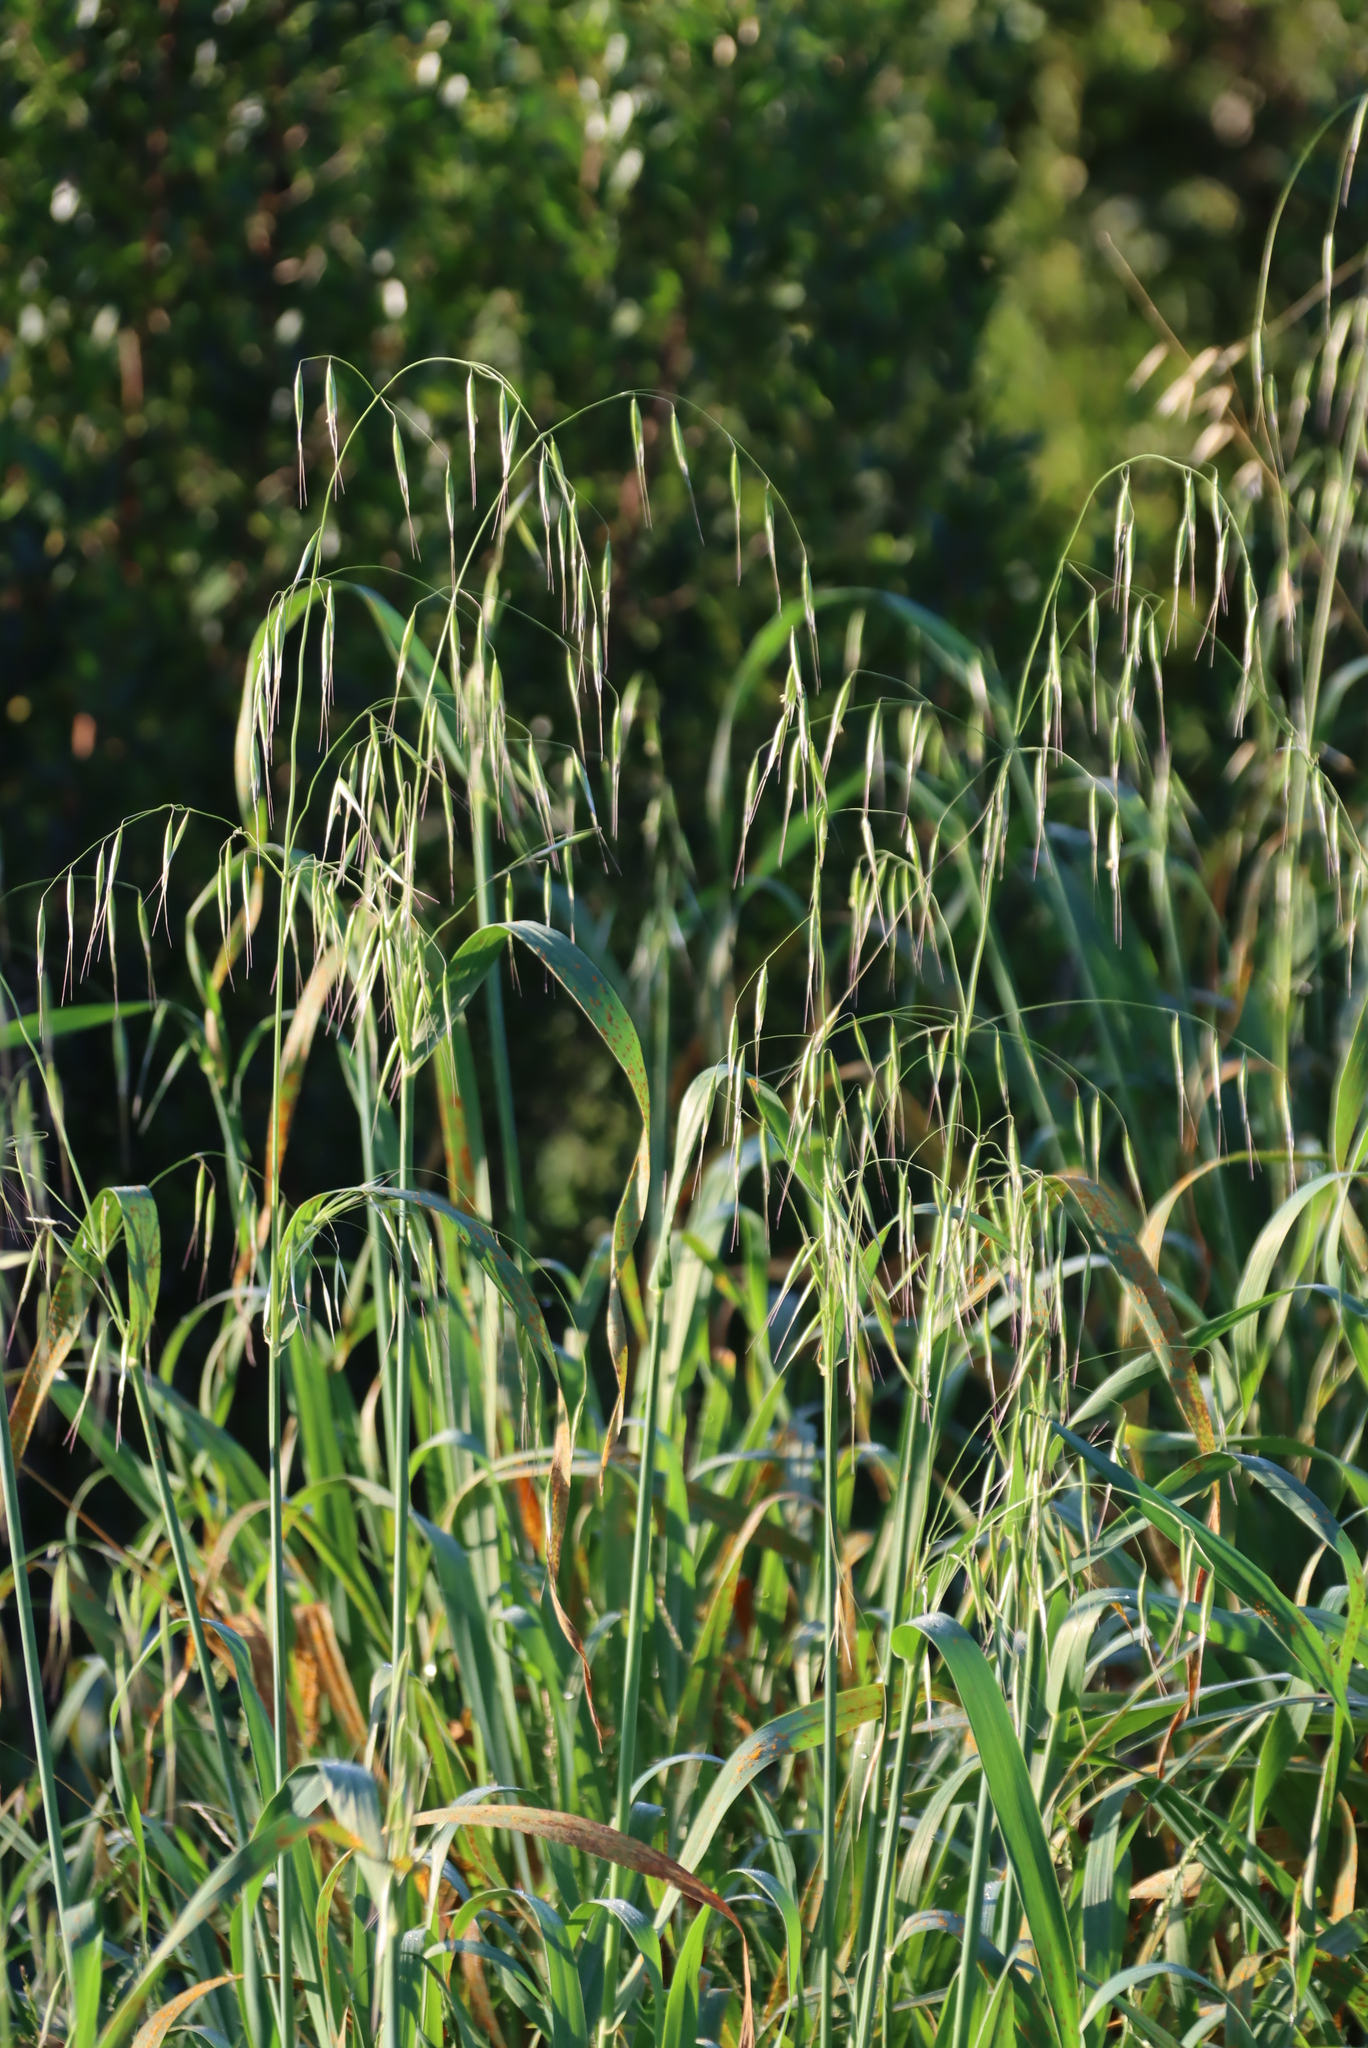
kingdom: Plantae
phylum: Tracheophyta
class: Liliopsida
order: Poales
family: Poaceae
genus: Avena
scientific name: Avena fatua
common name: Wild oat
